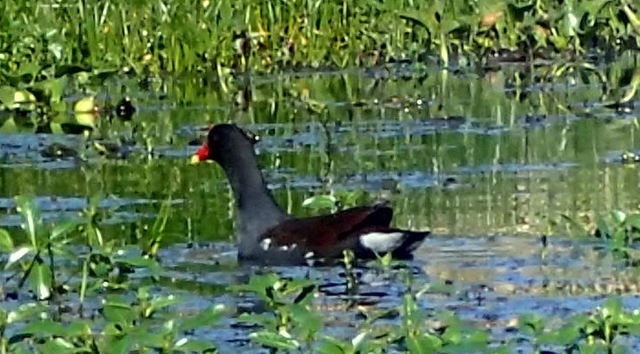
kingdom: Animalia
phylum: Chordata
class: Aves
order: Gruiformes
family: Rallidae
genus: Gallinula
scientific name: Gallinula chloropus
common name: Common moorhen
